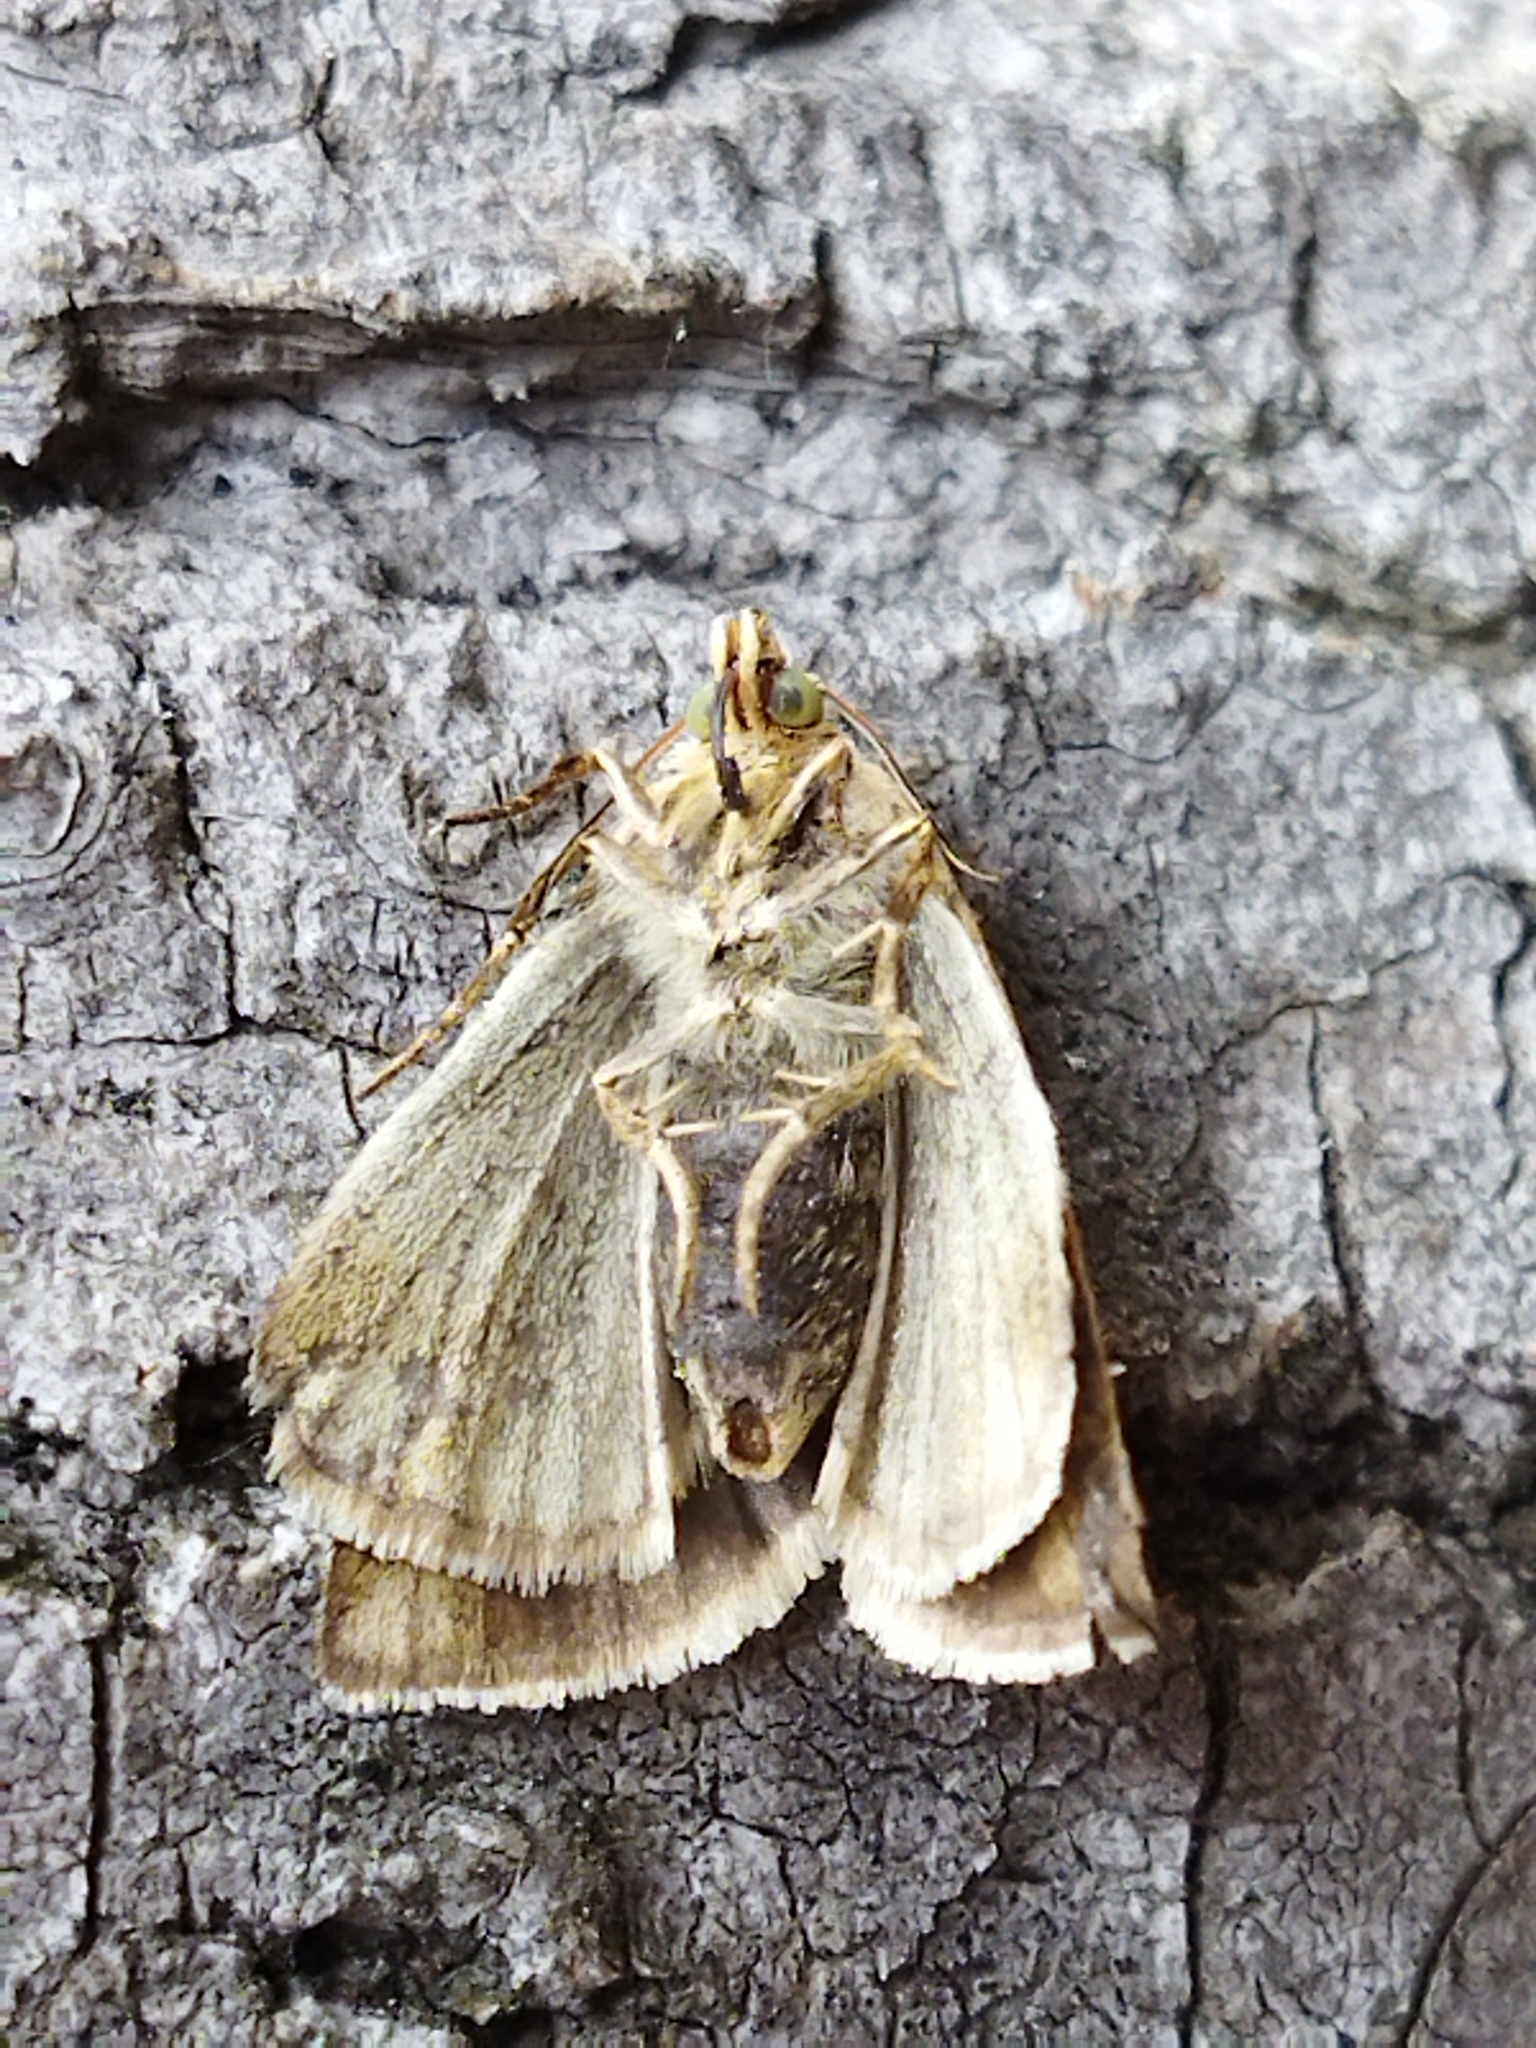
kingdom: Animalia
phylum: Arthropoda
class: Insecta
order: Lepidoptera
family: Noctuidae
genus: Aegle
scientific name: Aegle kaekeritziana
